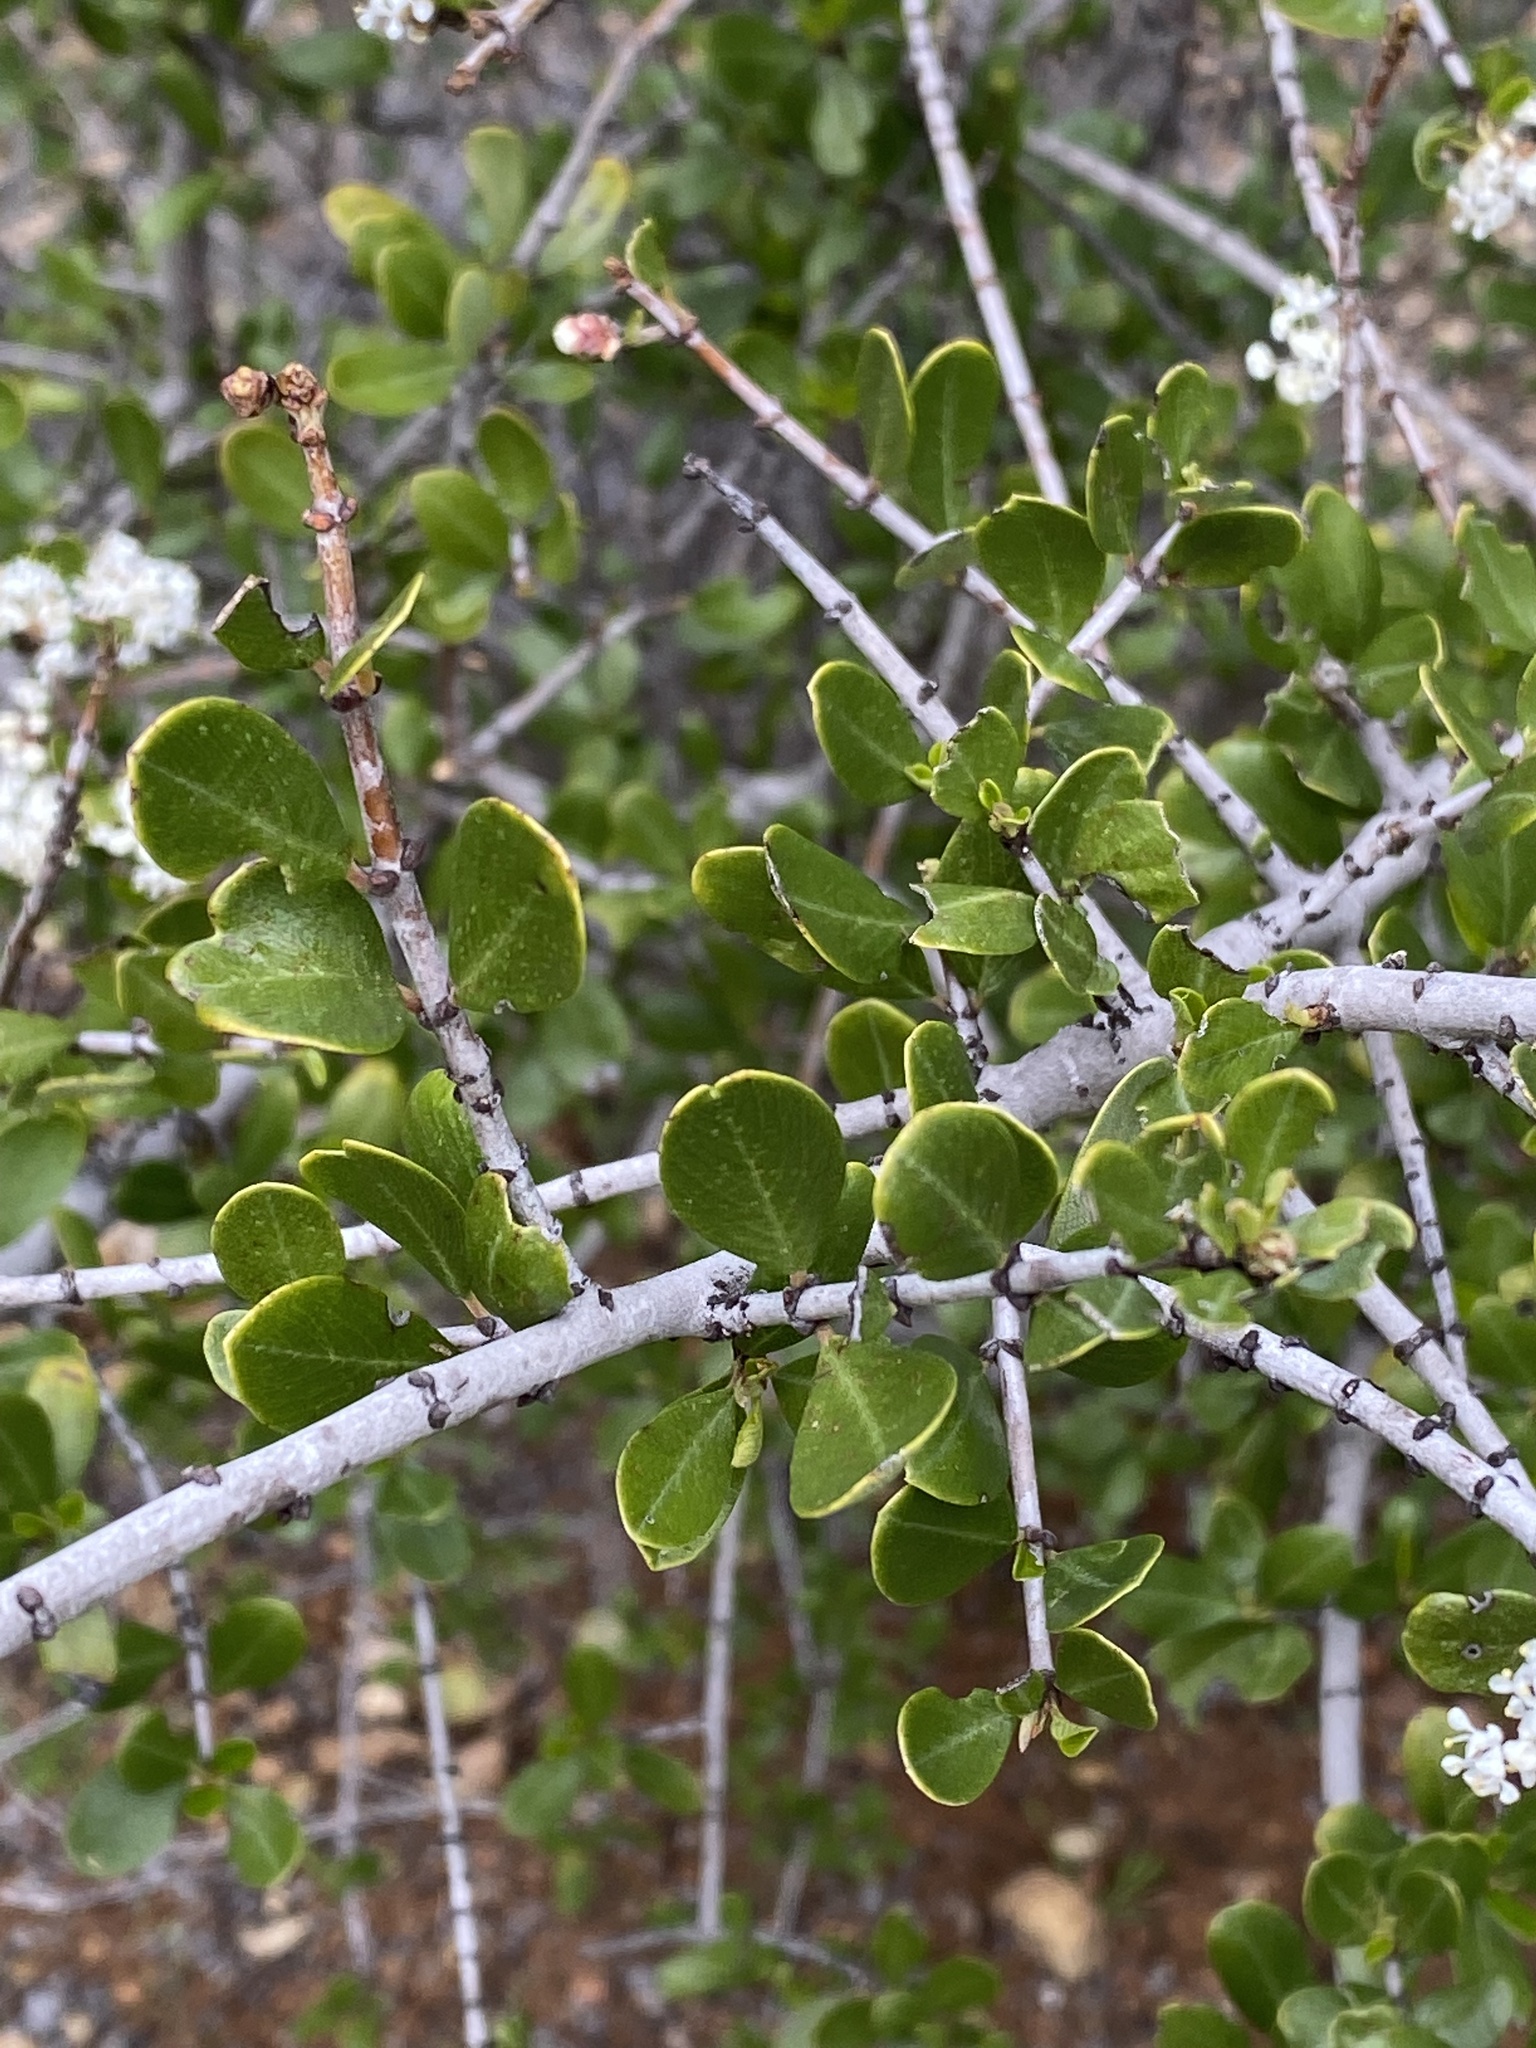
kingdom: Plantae
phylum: Tracheophyta
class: Magnoliopsida
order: Rosales
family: Rhamnaceae
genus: Ceanothus
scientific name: Ceanothus cuneatus
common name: Cuneate ceanothus
